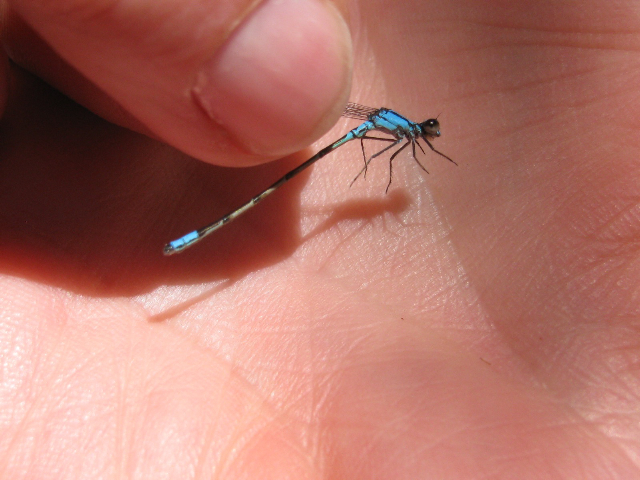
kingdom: Animalia
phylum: Arthropoda
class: Insecta
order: Odonata
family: Coenagrionidae
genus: Enallagma
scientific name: Enallagma geminatum
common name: Skimming bluet
